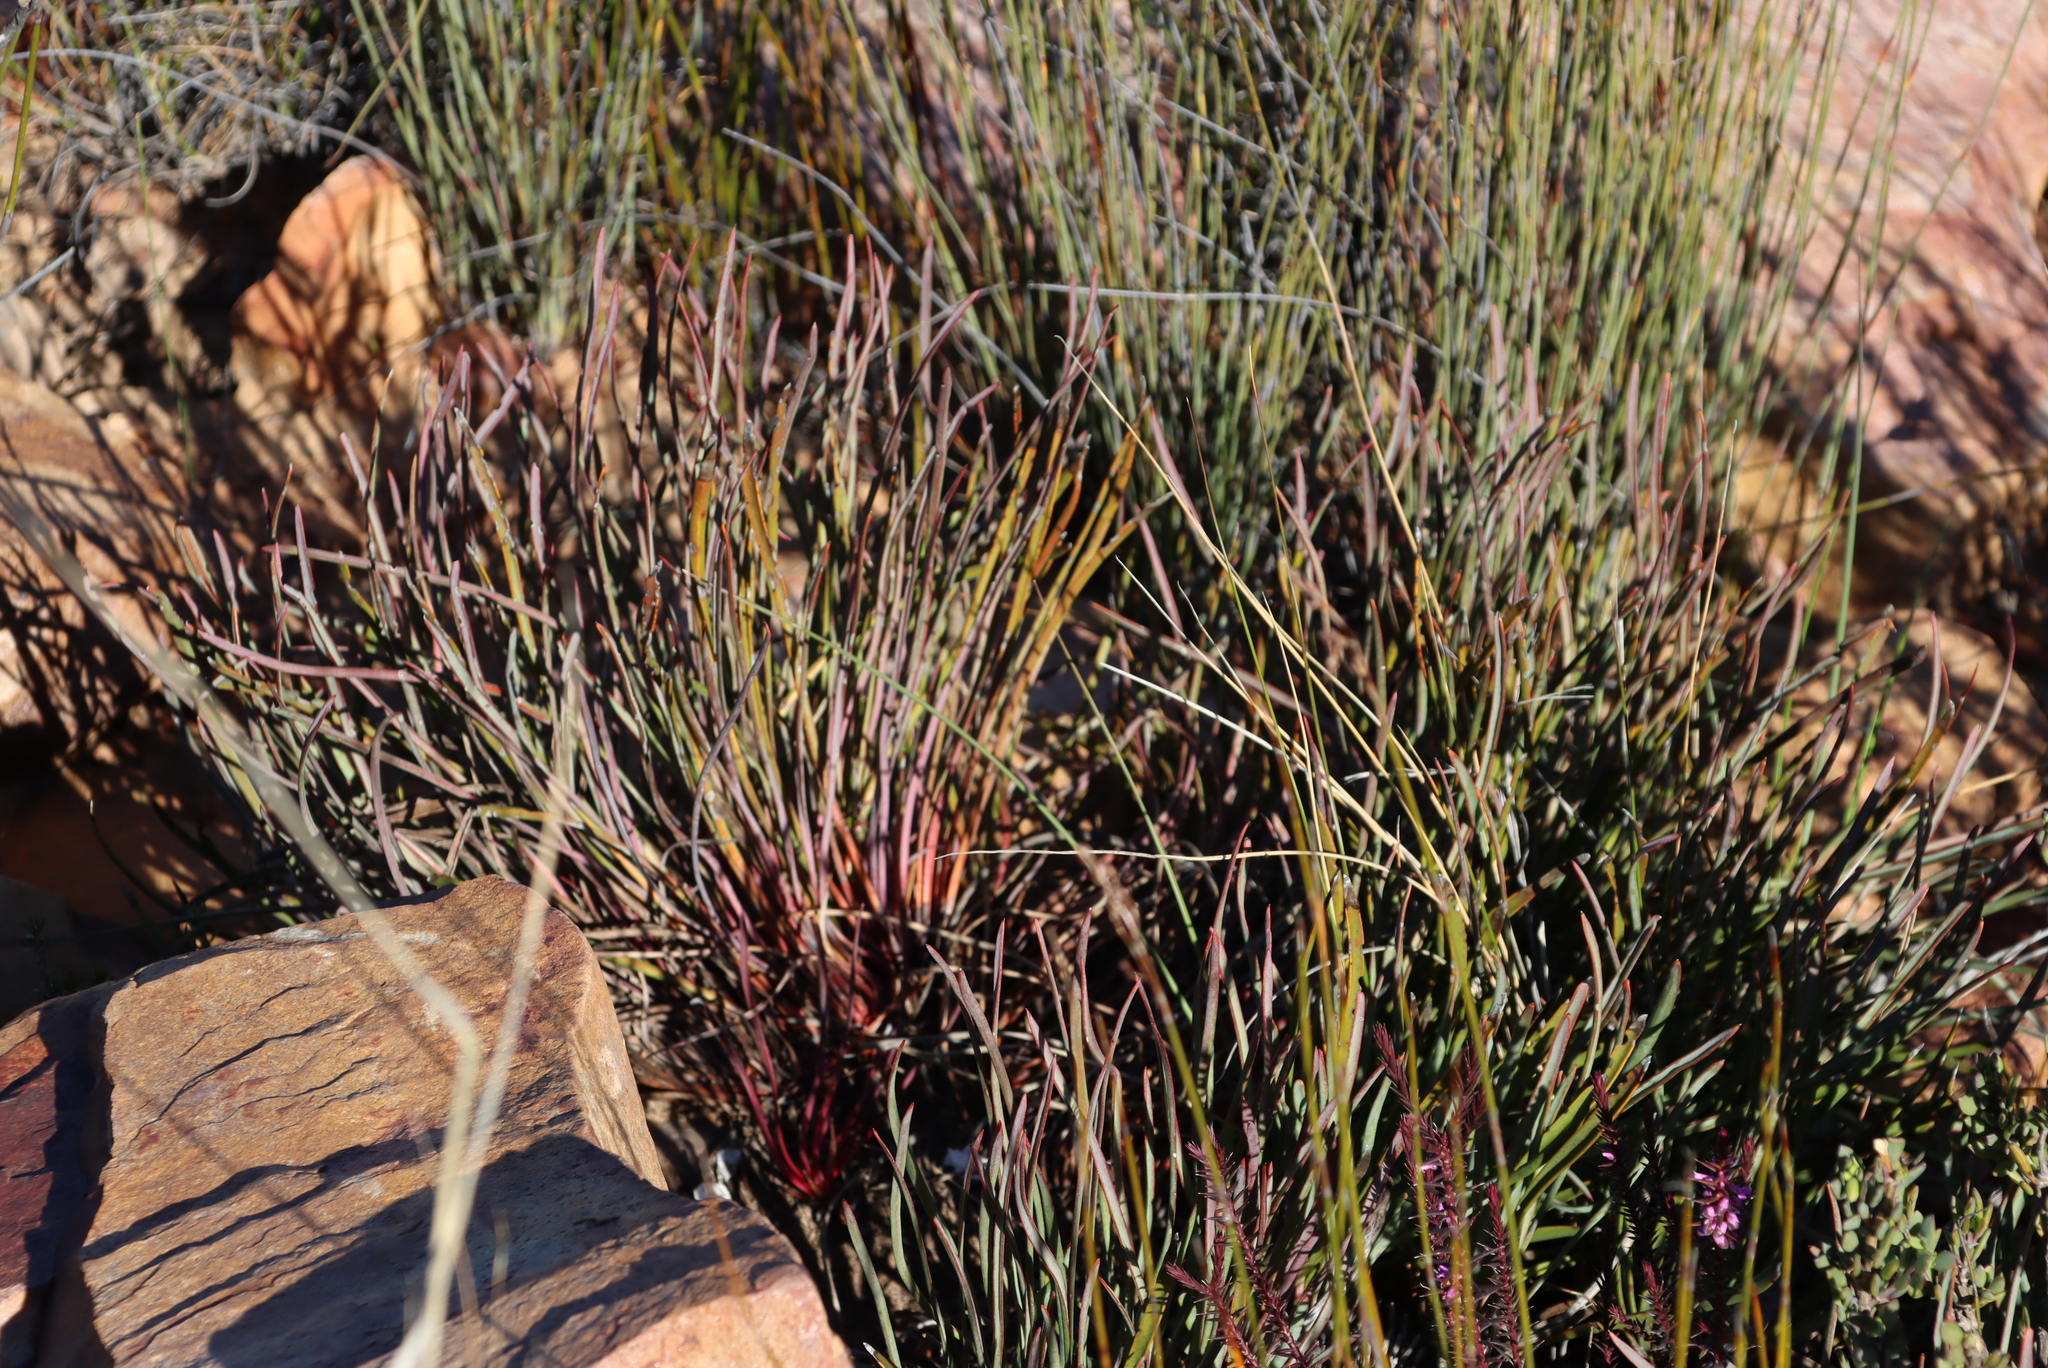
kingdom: Plantae
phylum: Tracheophyta
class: Magnoliopsida
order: Proteales
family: Proteaceae
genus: Protea
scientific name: Protea intonsa
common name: Tufted sugarbush
